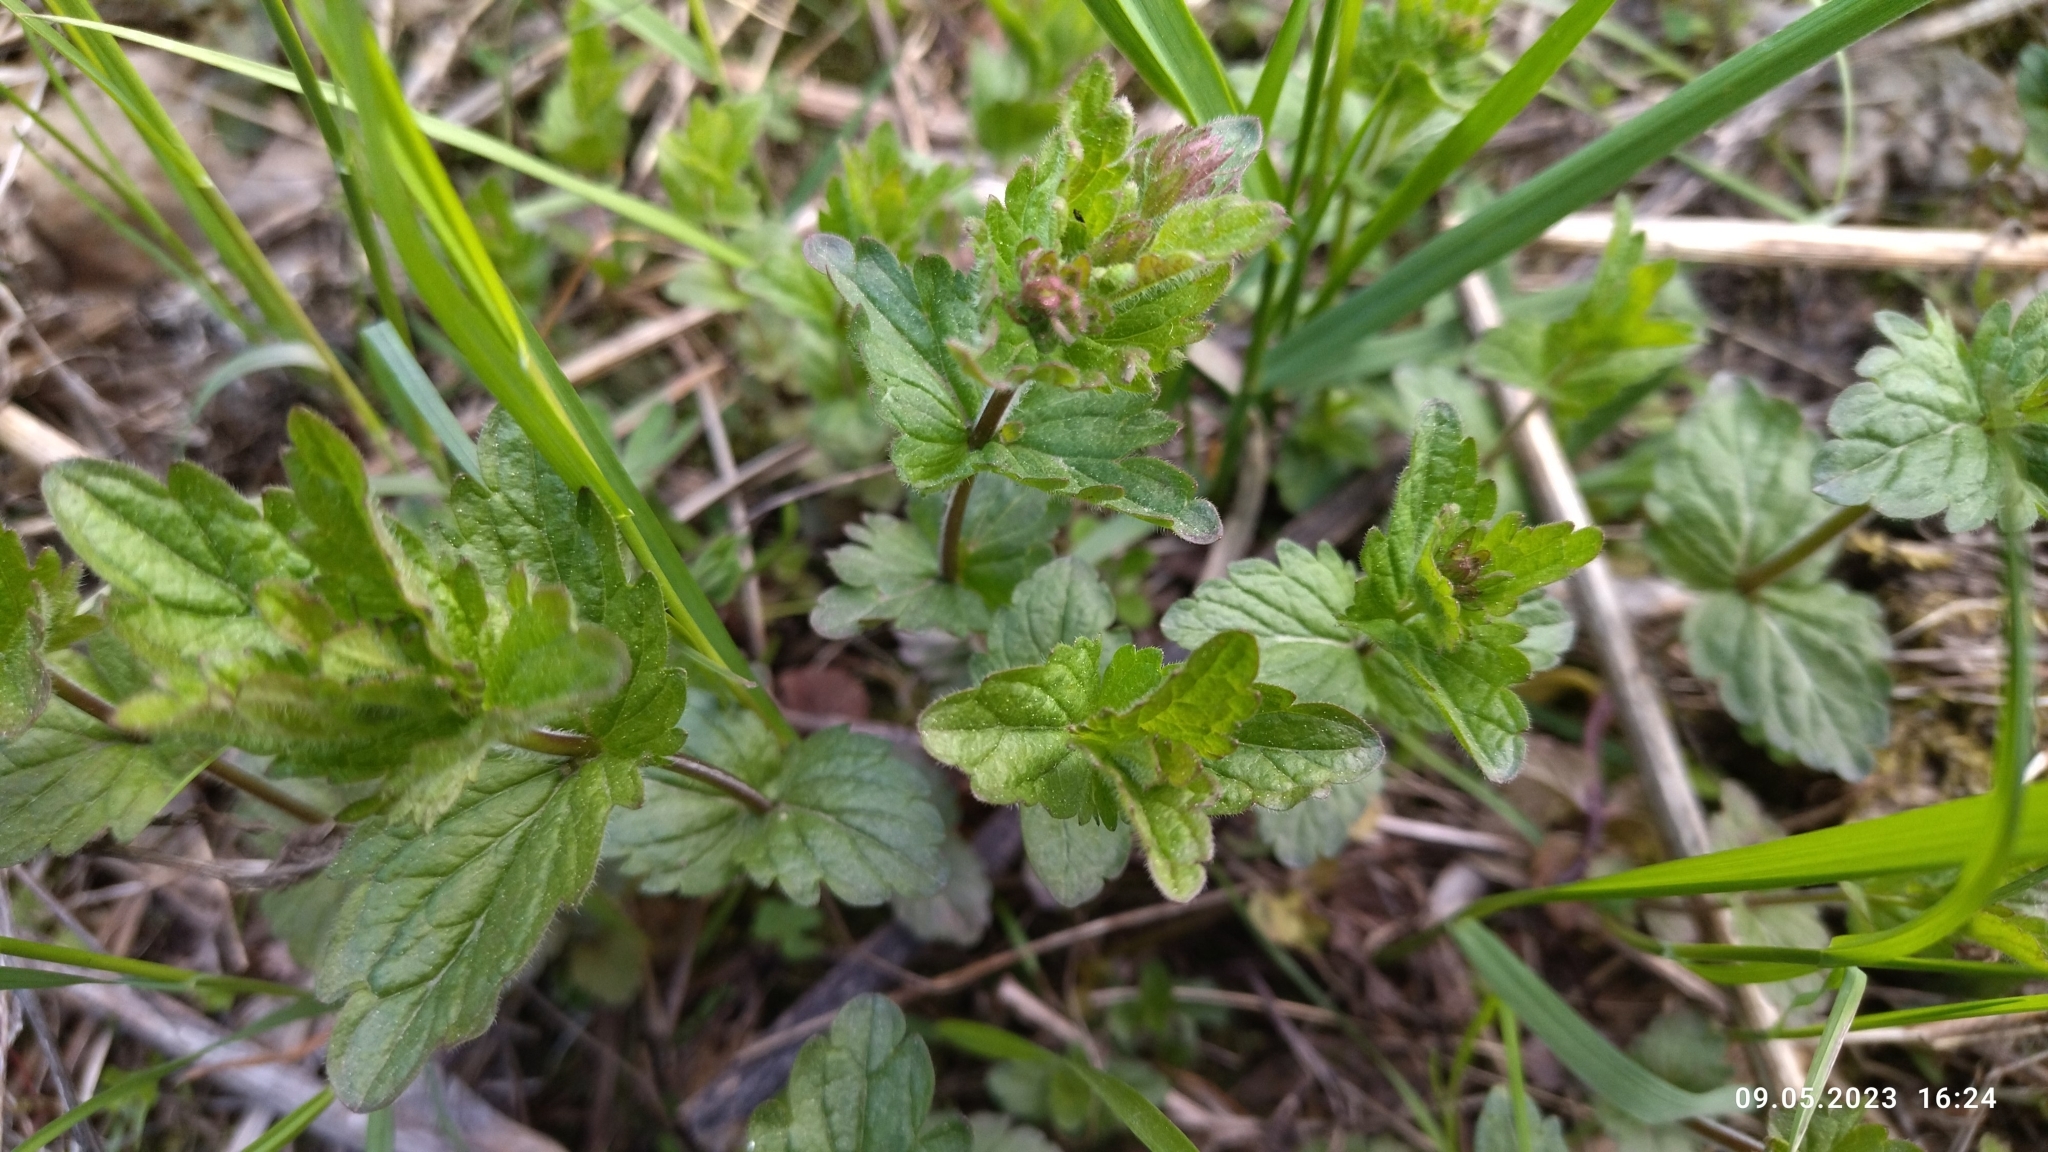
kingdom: Plantae
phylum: Tracheophyta
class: Magnoliopsida
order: Lamiales
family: Plantaginaceae
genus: Veronica
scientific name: Veronica chamaedrys
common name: Germander speedwell
